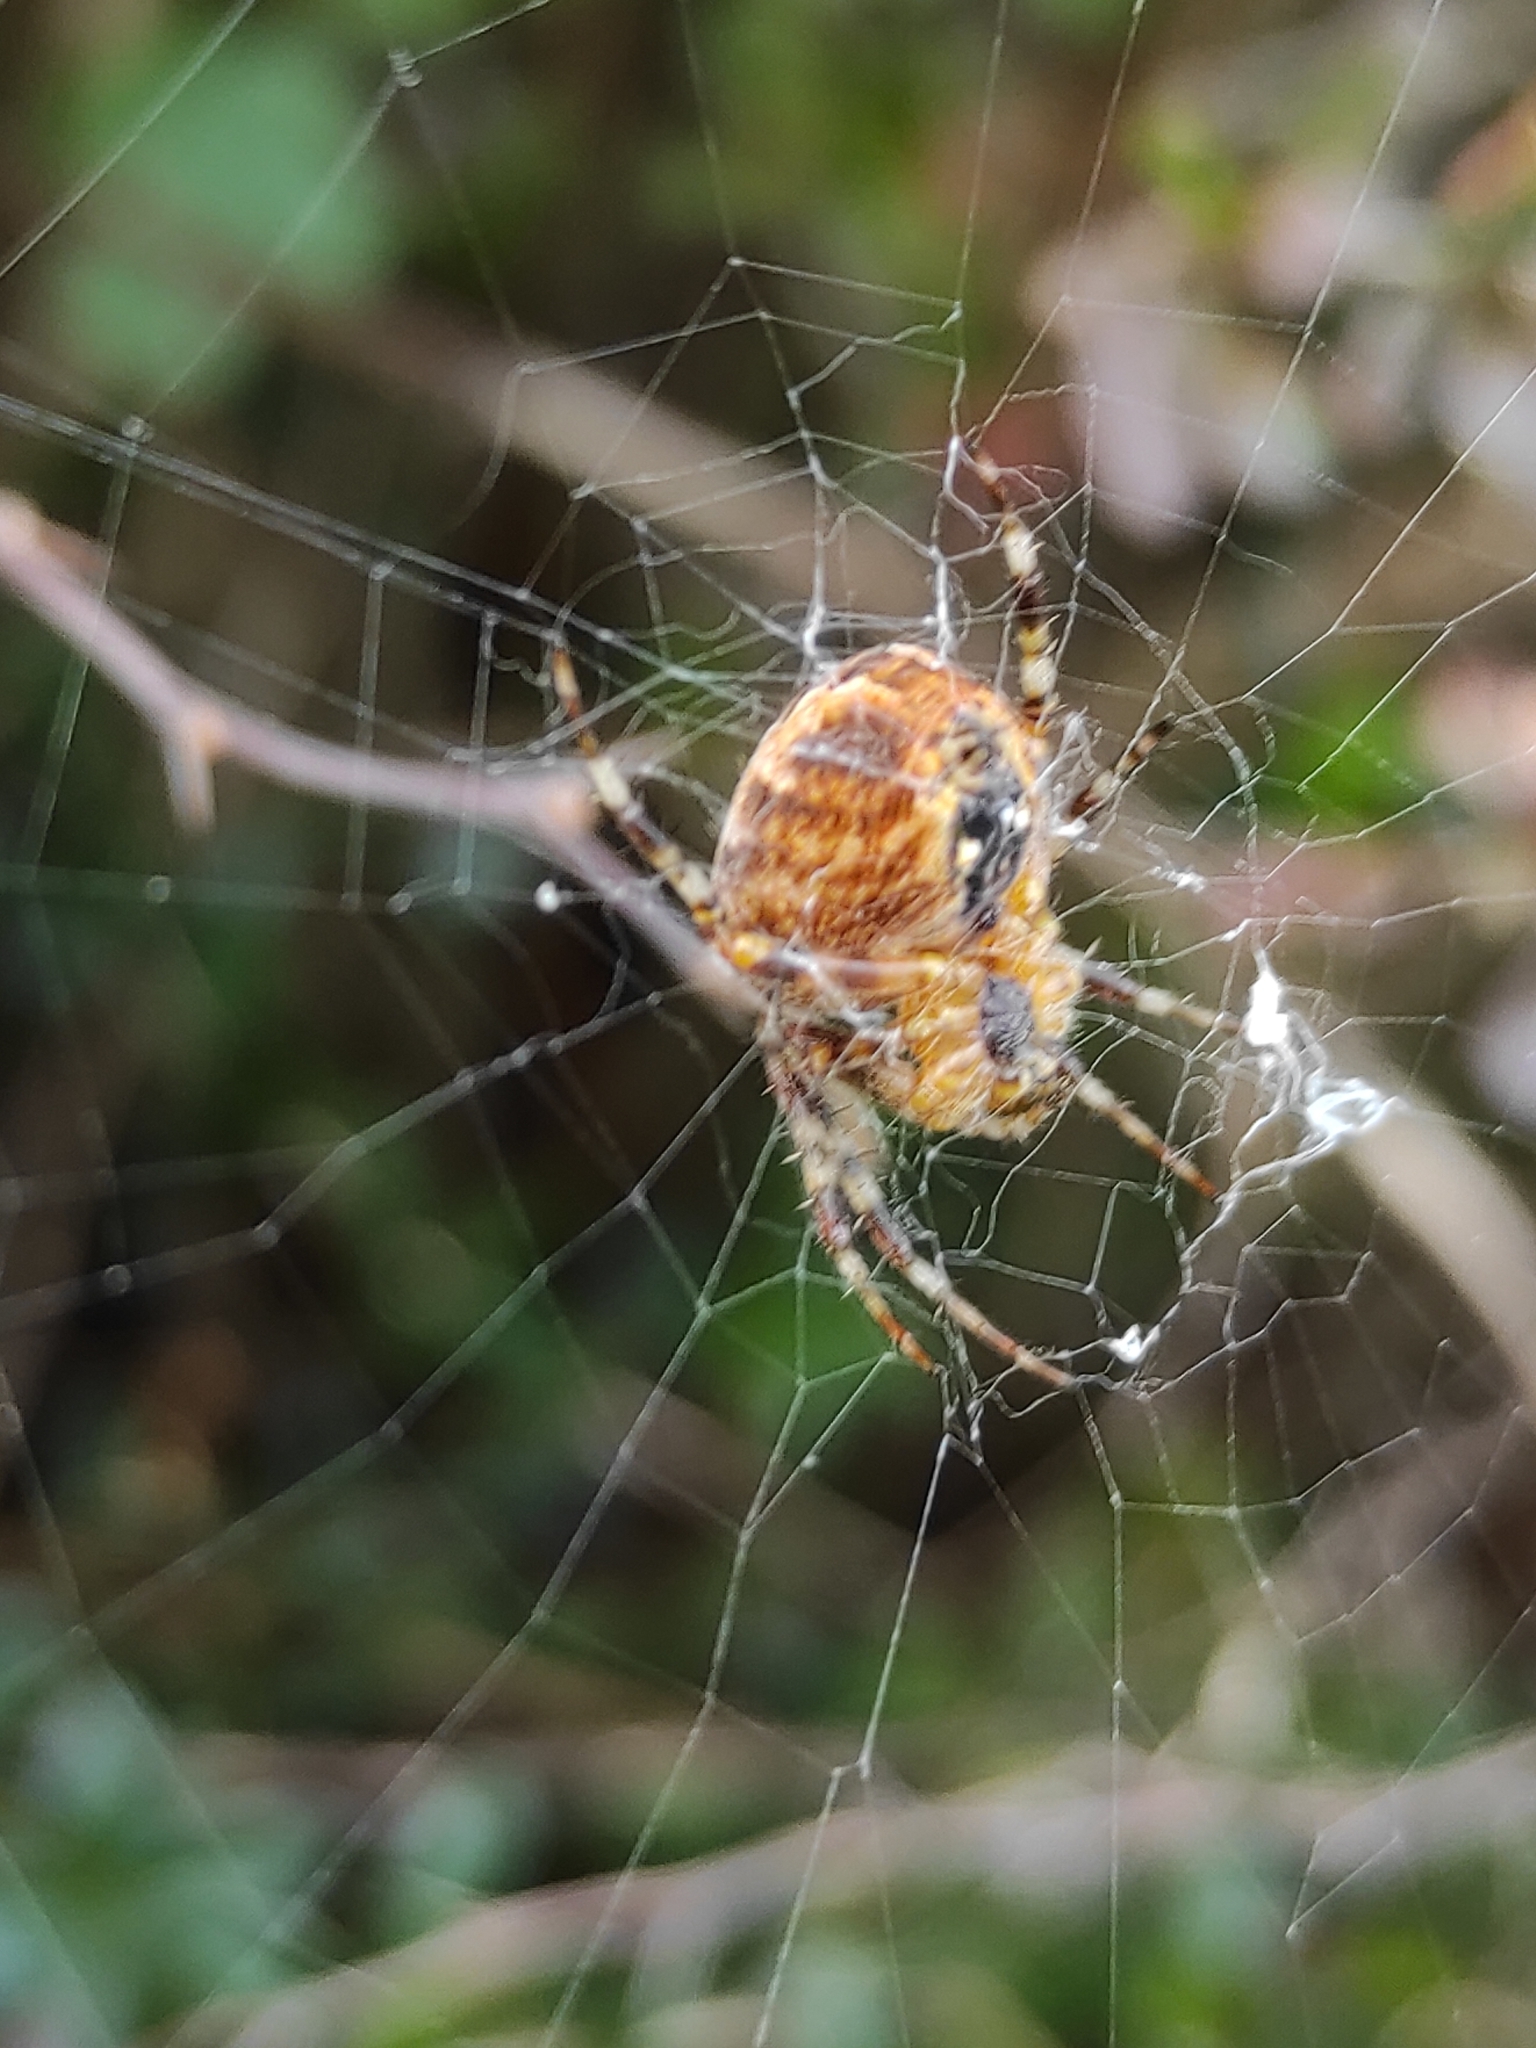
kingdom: Animalia
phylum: Arthropoda
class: Arachnida
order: Araneae
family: Araneidae
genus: Araneus
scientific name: Araneus diadematus
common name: Cross orbweaver
